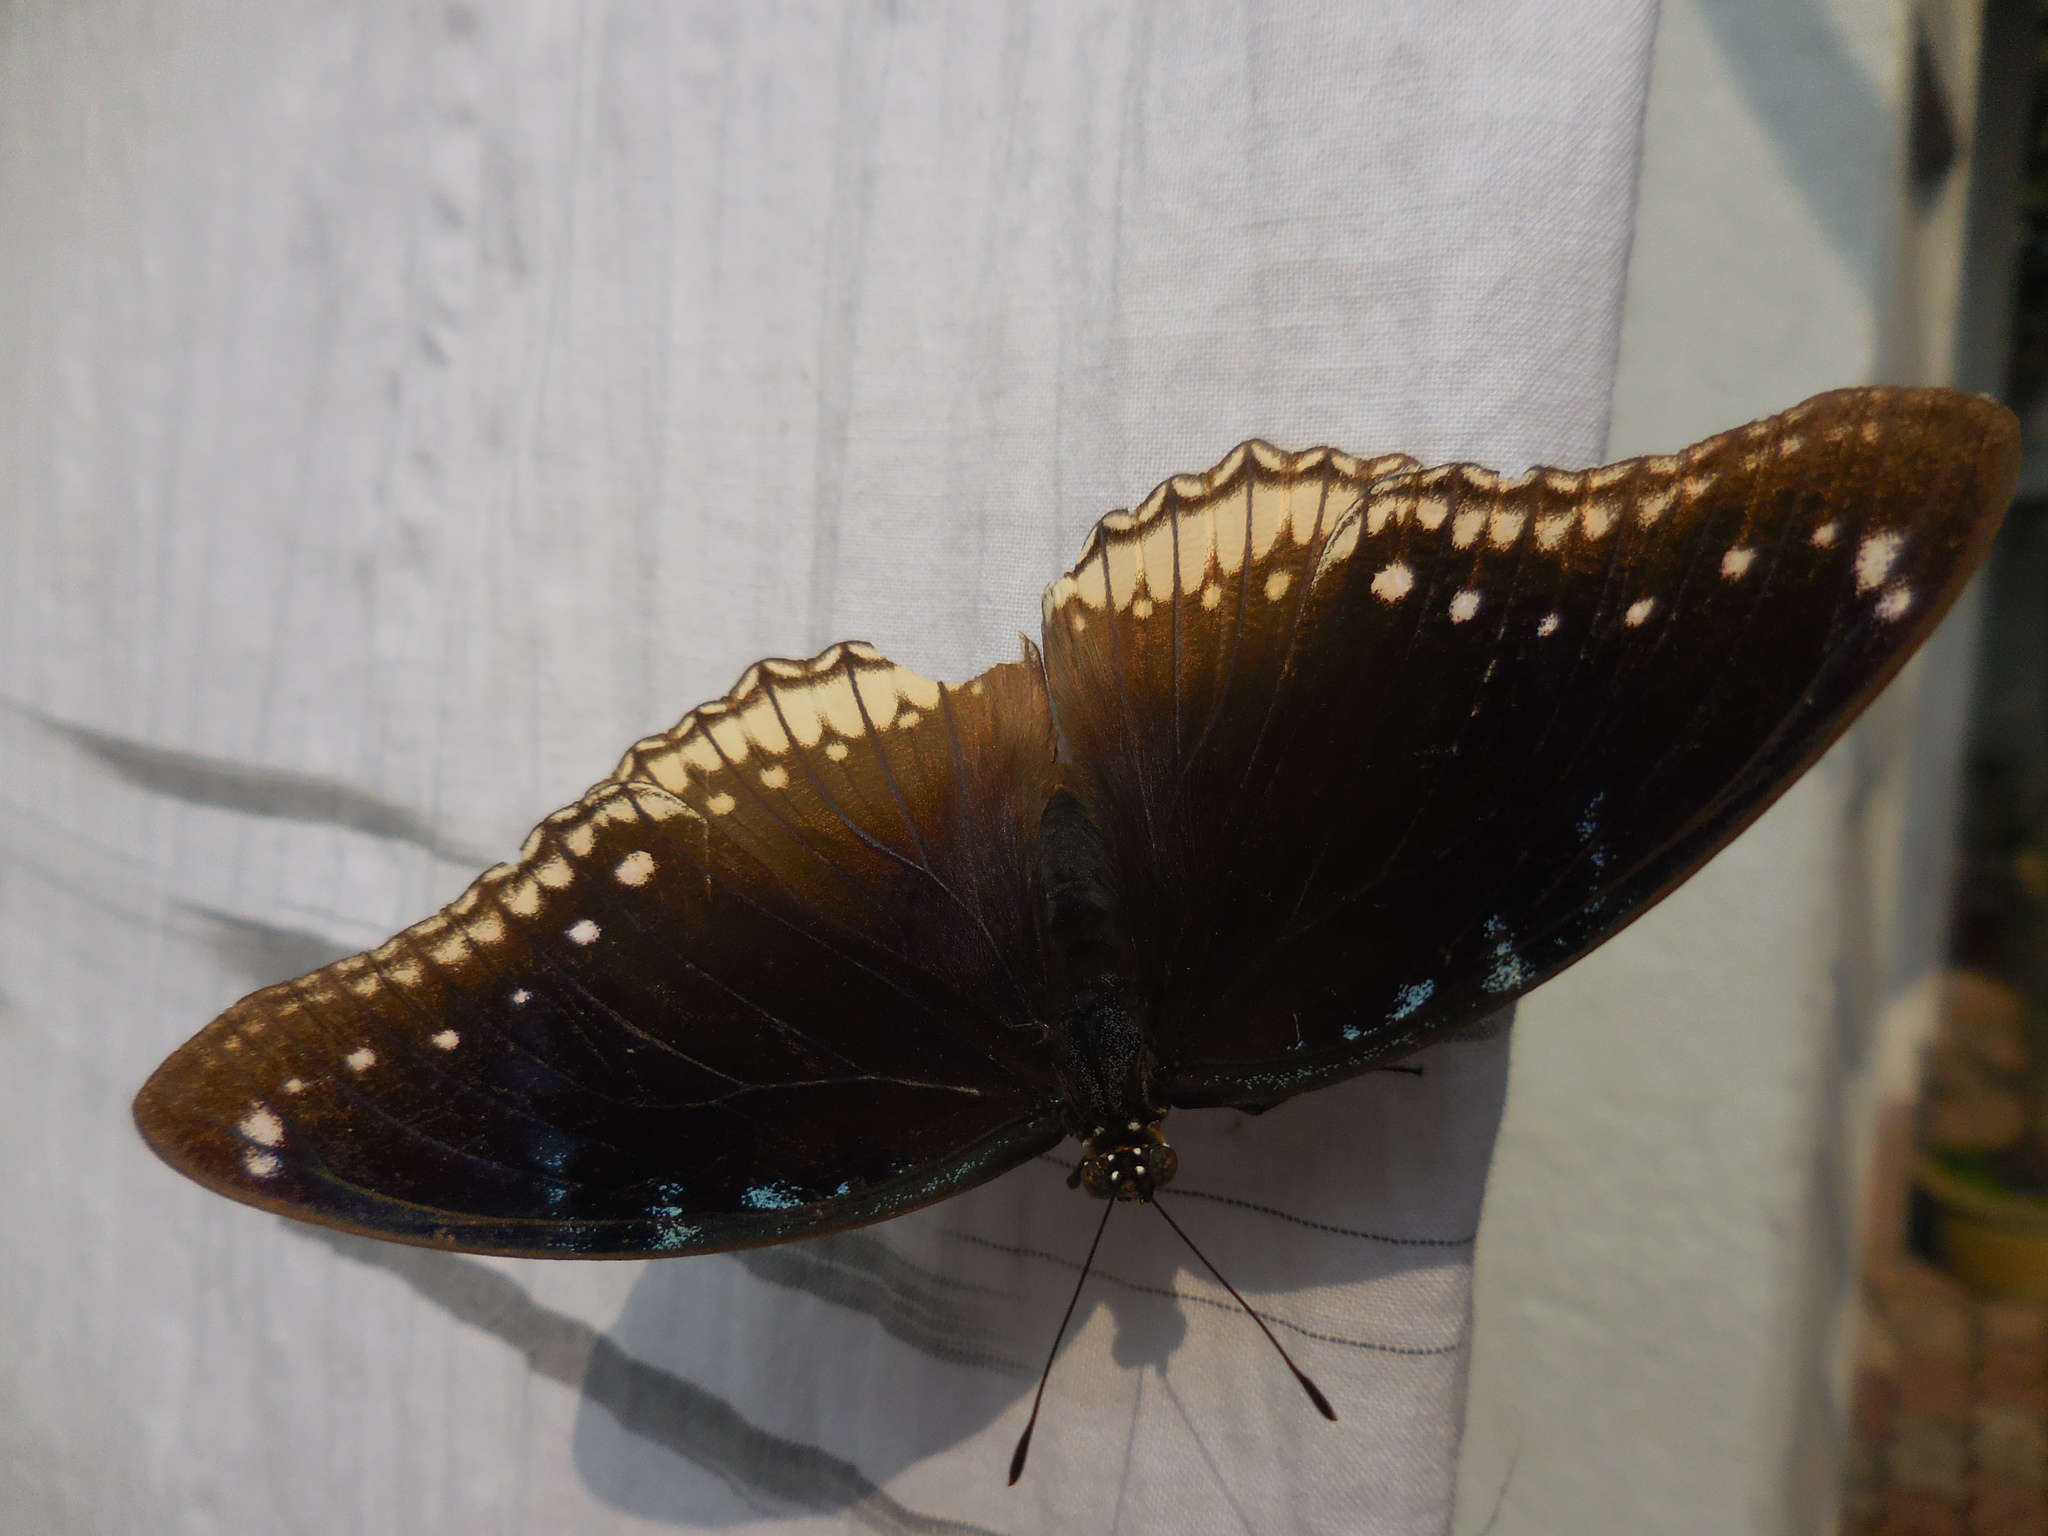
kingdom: Animalia
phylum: Arthropoda
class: Insecta
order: Lepidoptera
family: Nymphalidae
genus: Hypolimnas
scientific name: Hypolimnas bolina
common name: Great eggfly
